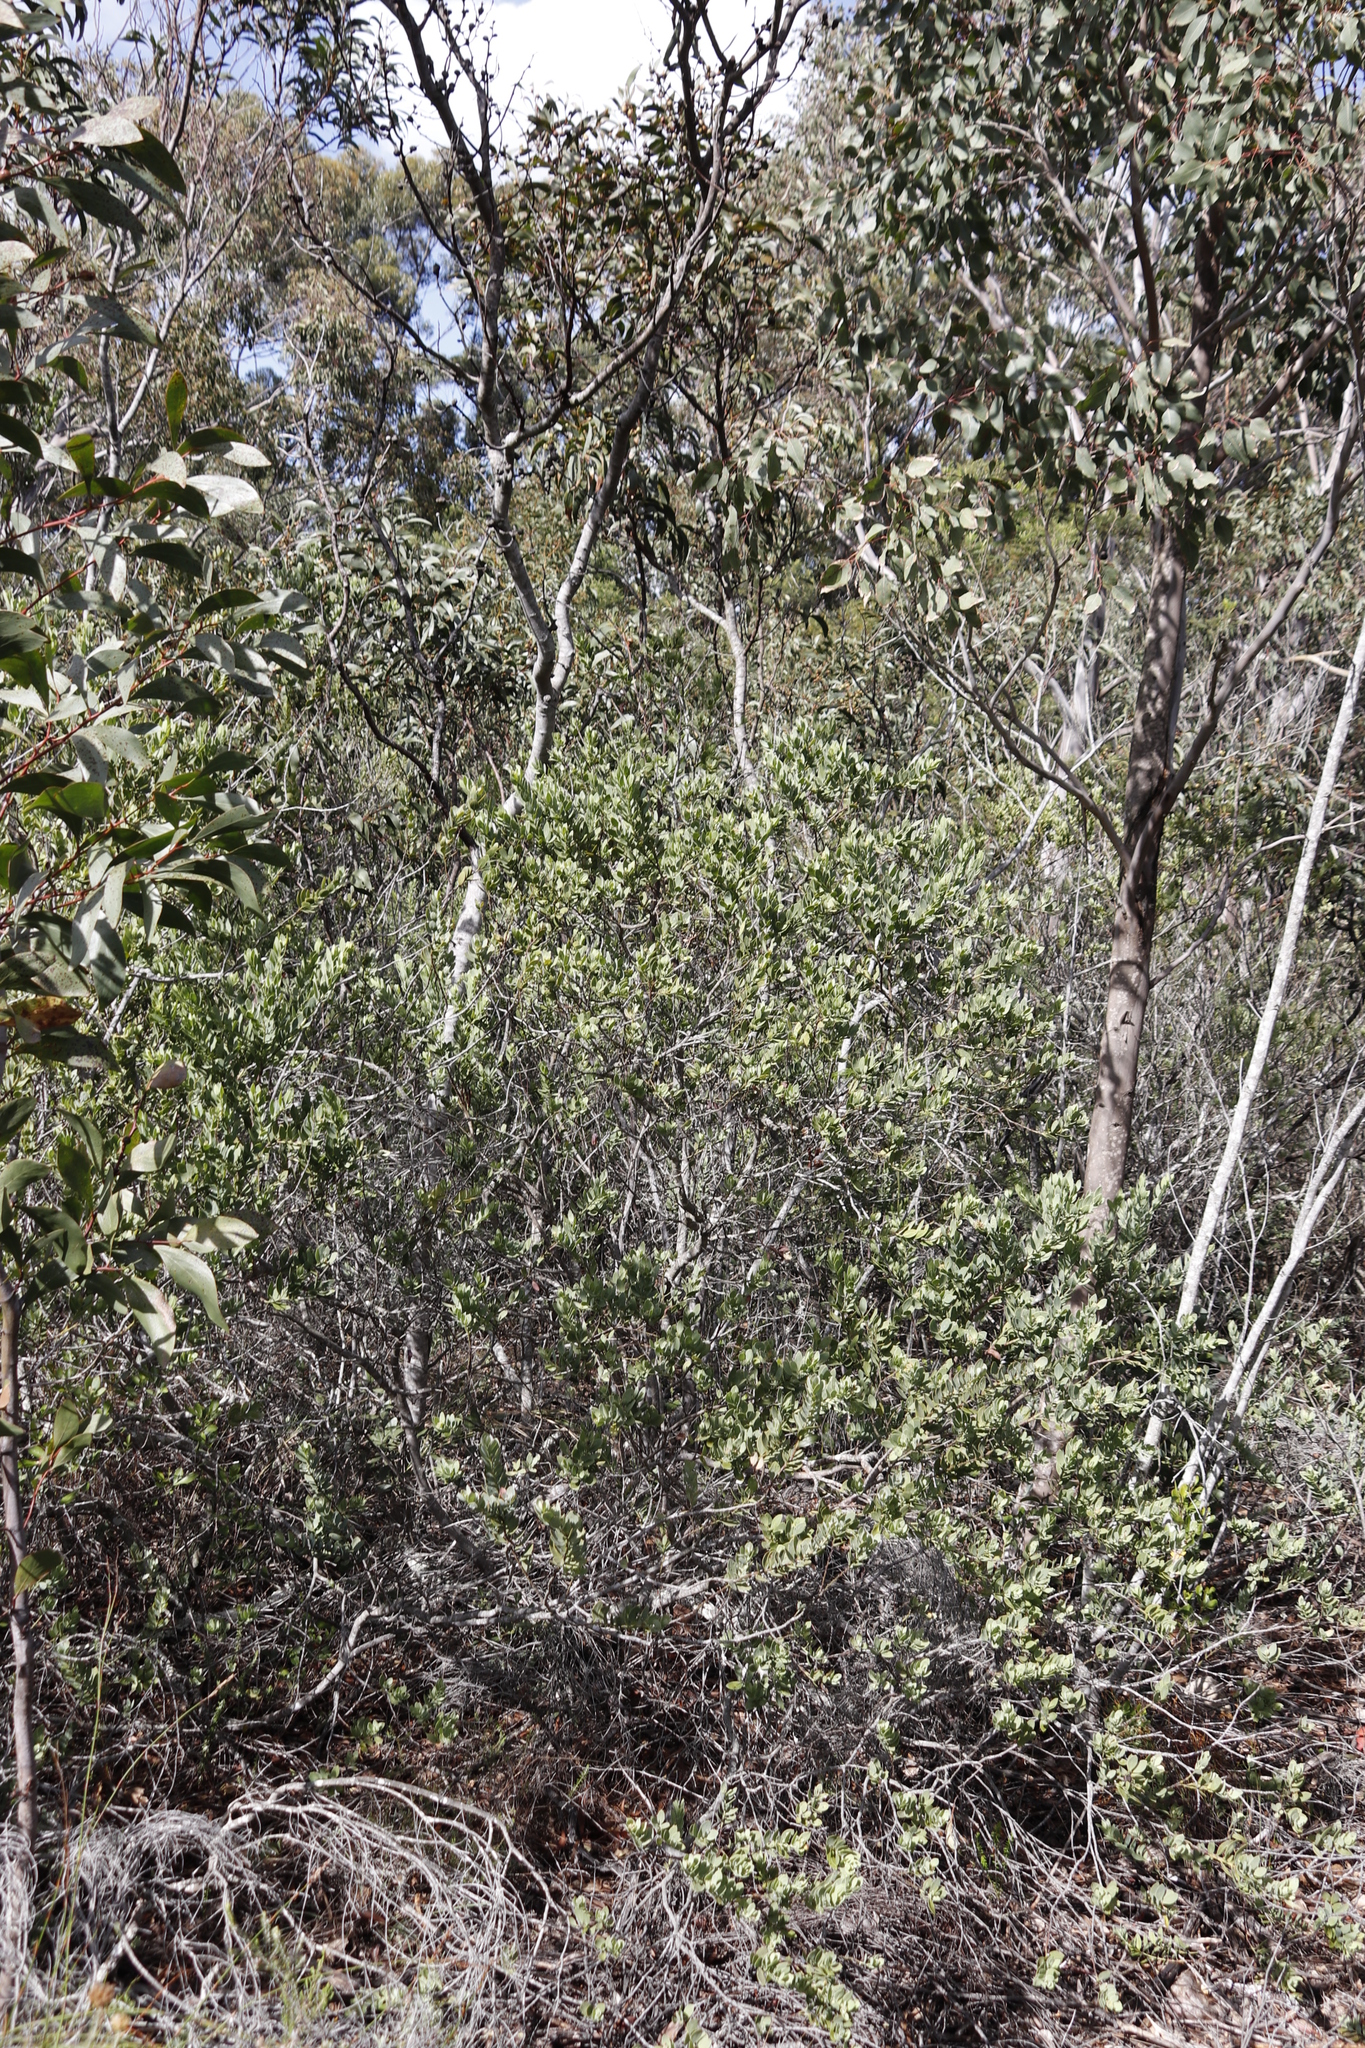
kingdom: Plantae
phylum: Tracheophyta
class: Magnoliopsida
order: Fabales
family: Fabaceae
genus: Acacia
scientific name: Acacia pycnantha
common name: Golden wattle
